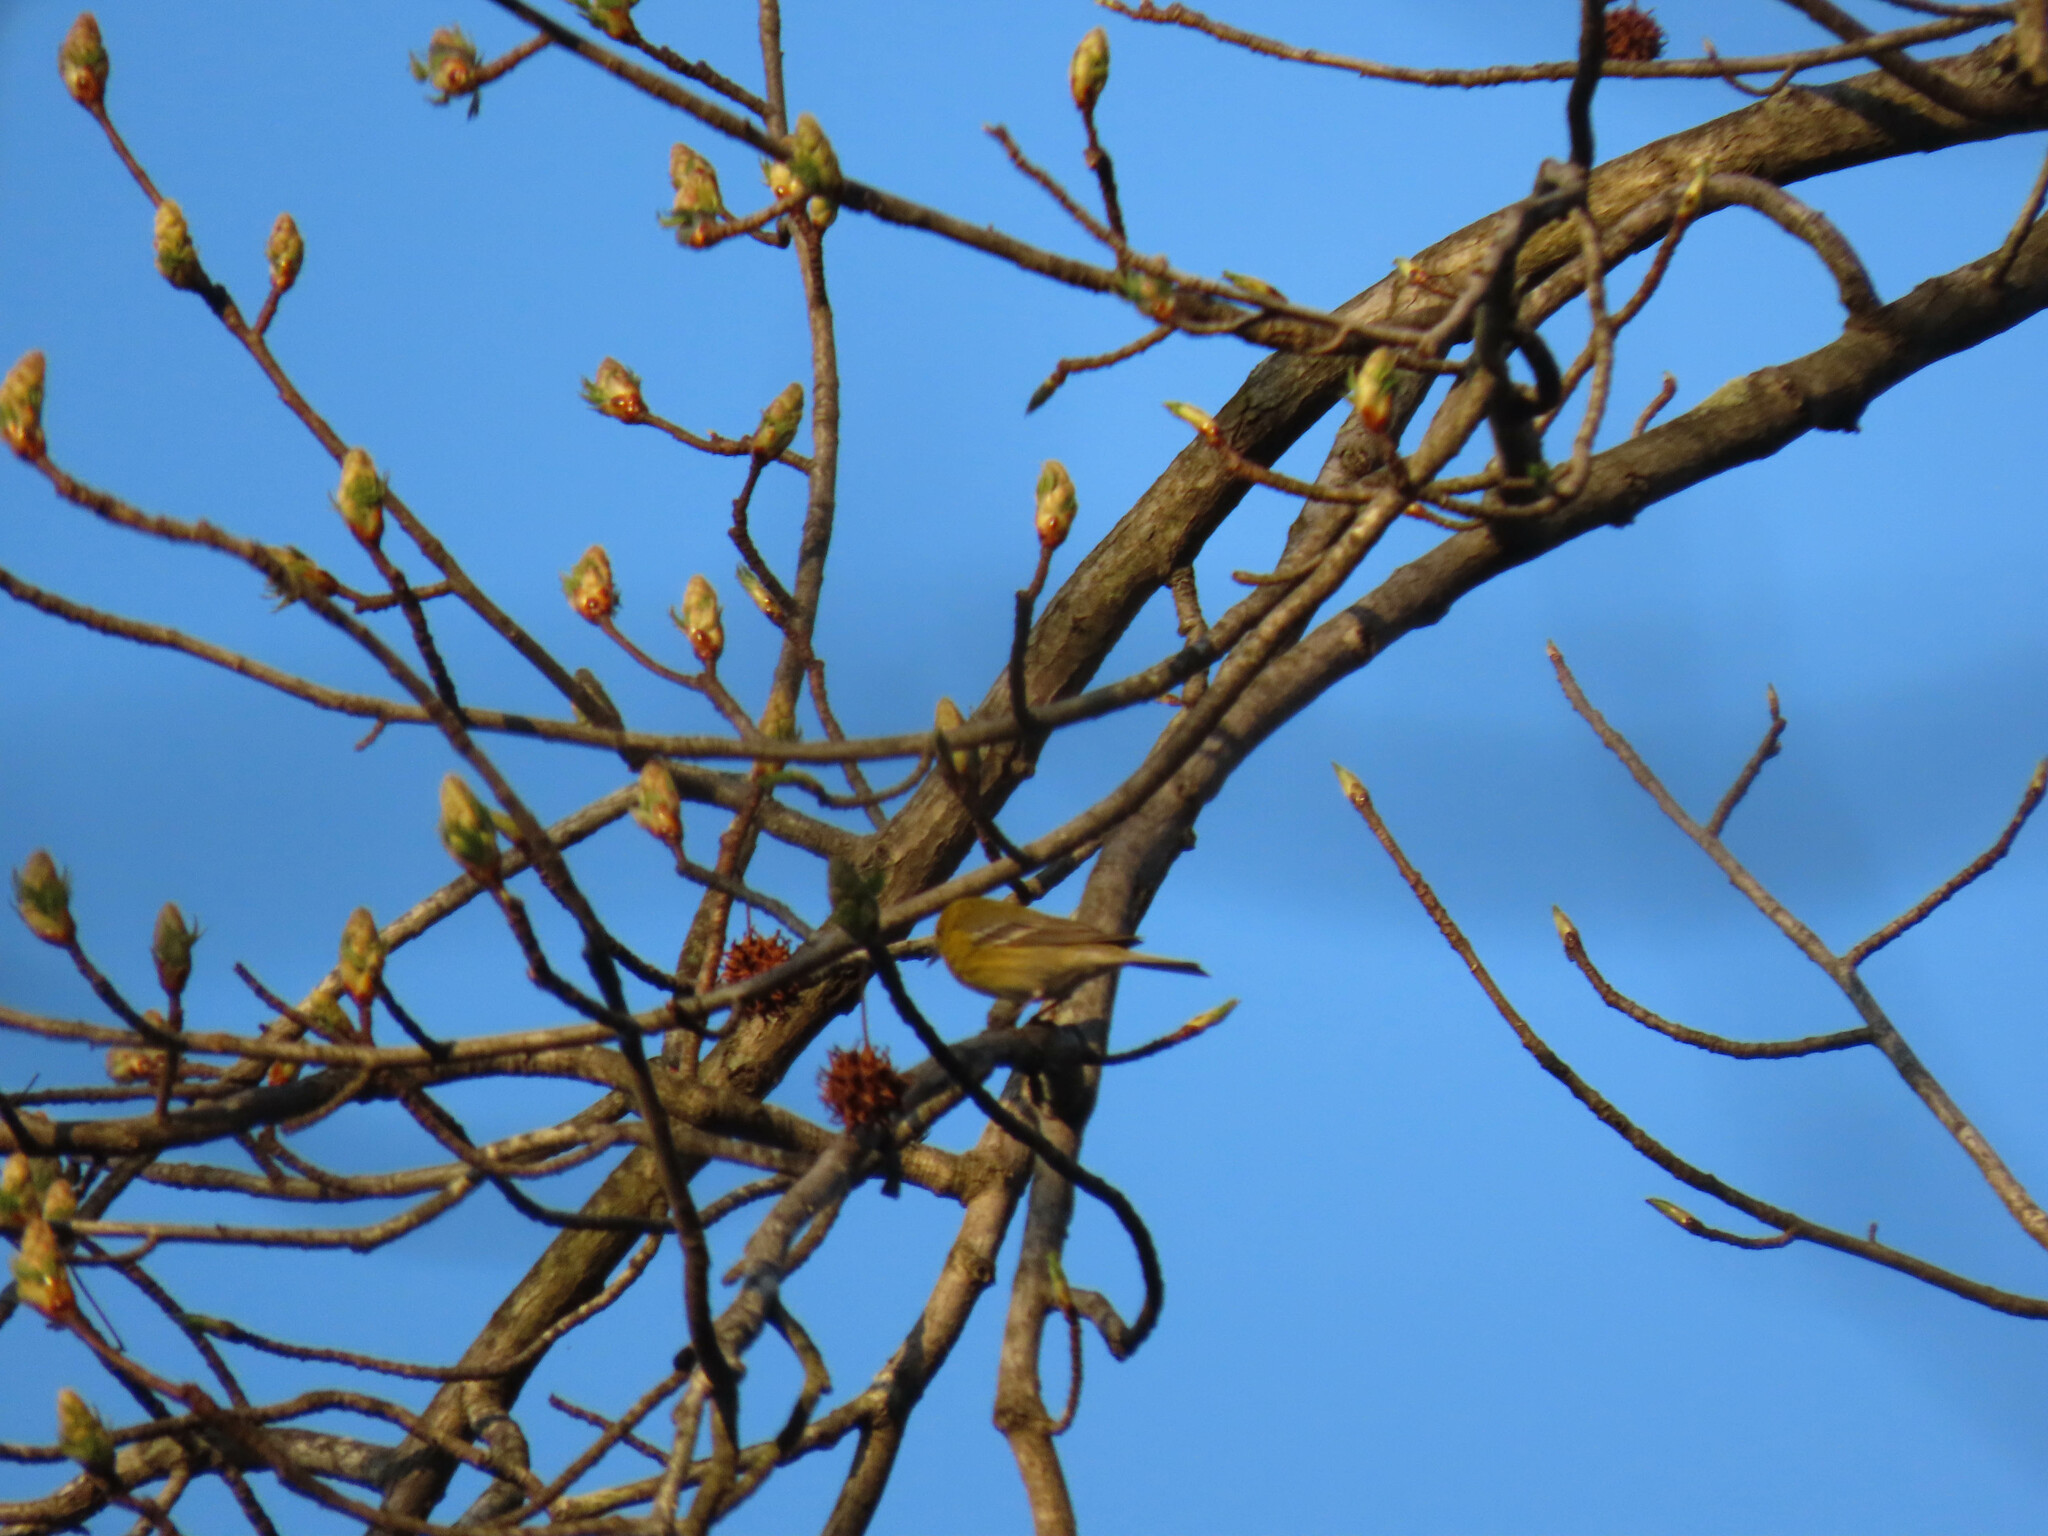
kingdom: Plantae
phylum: Tracheophyta
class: Magnoliopsida
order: Saxifragales
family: Altingiaceae
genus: Liquidambar
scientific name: Liquidambar styraciflua
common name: Sweet gum
